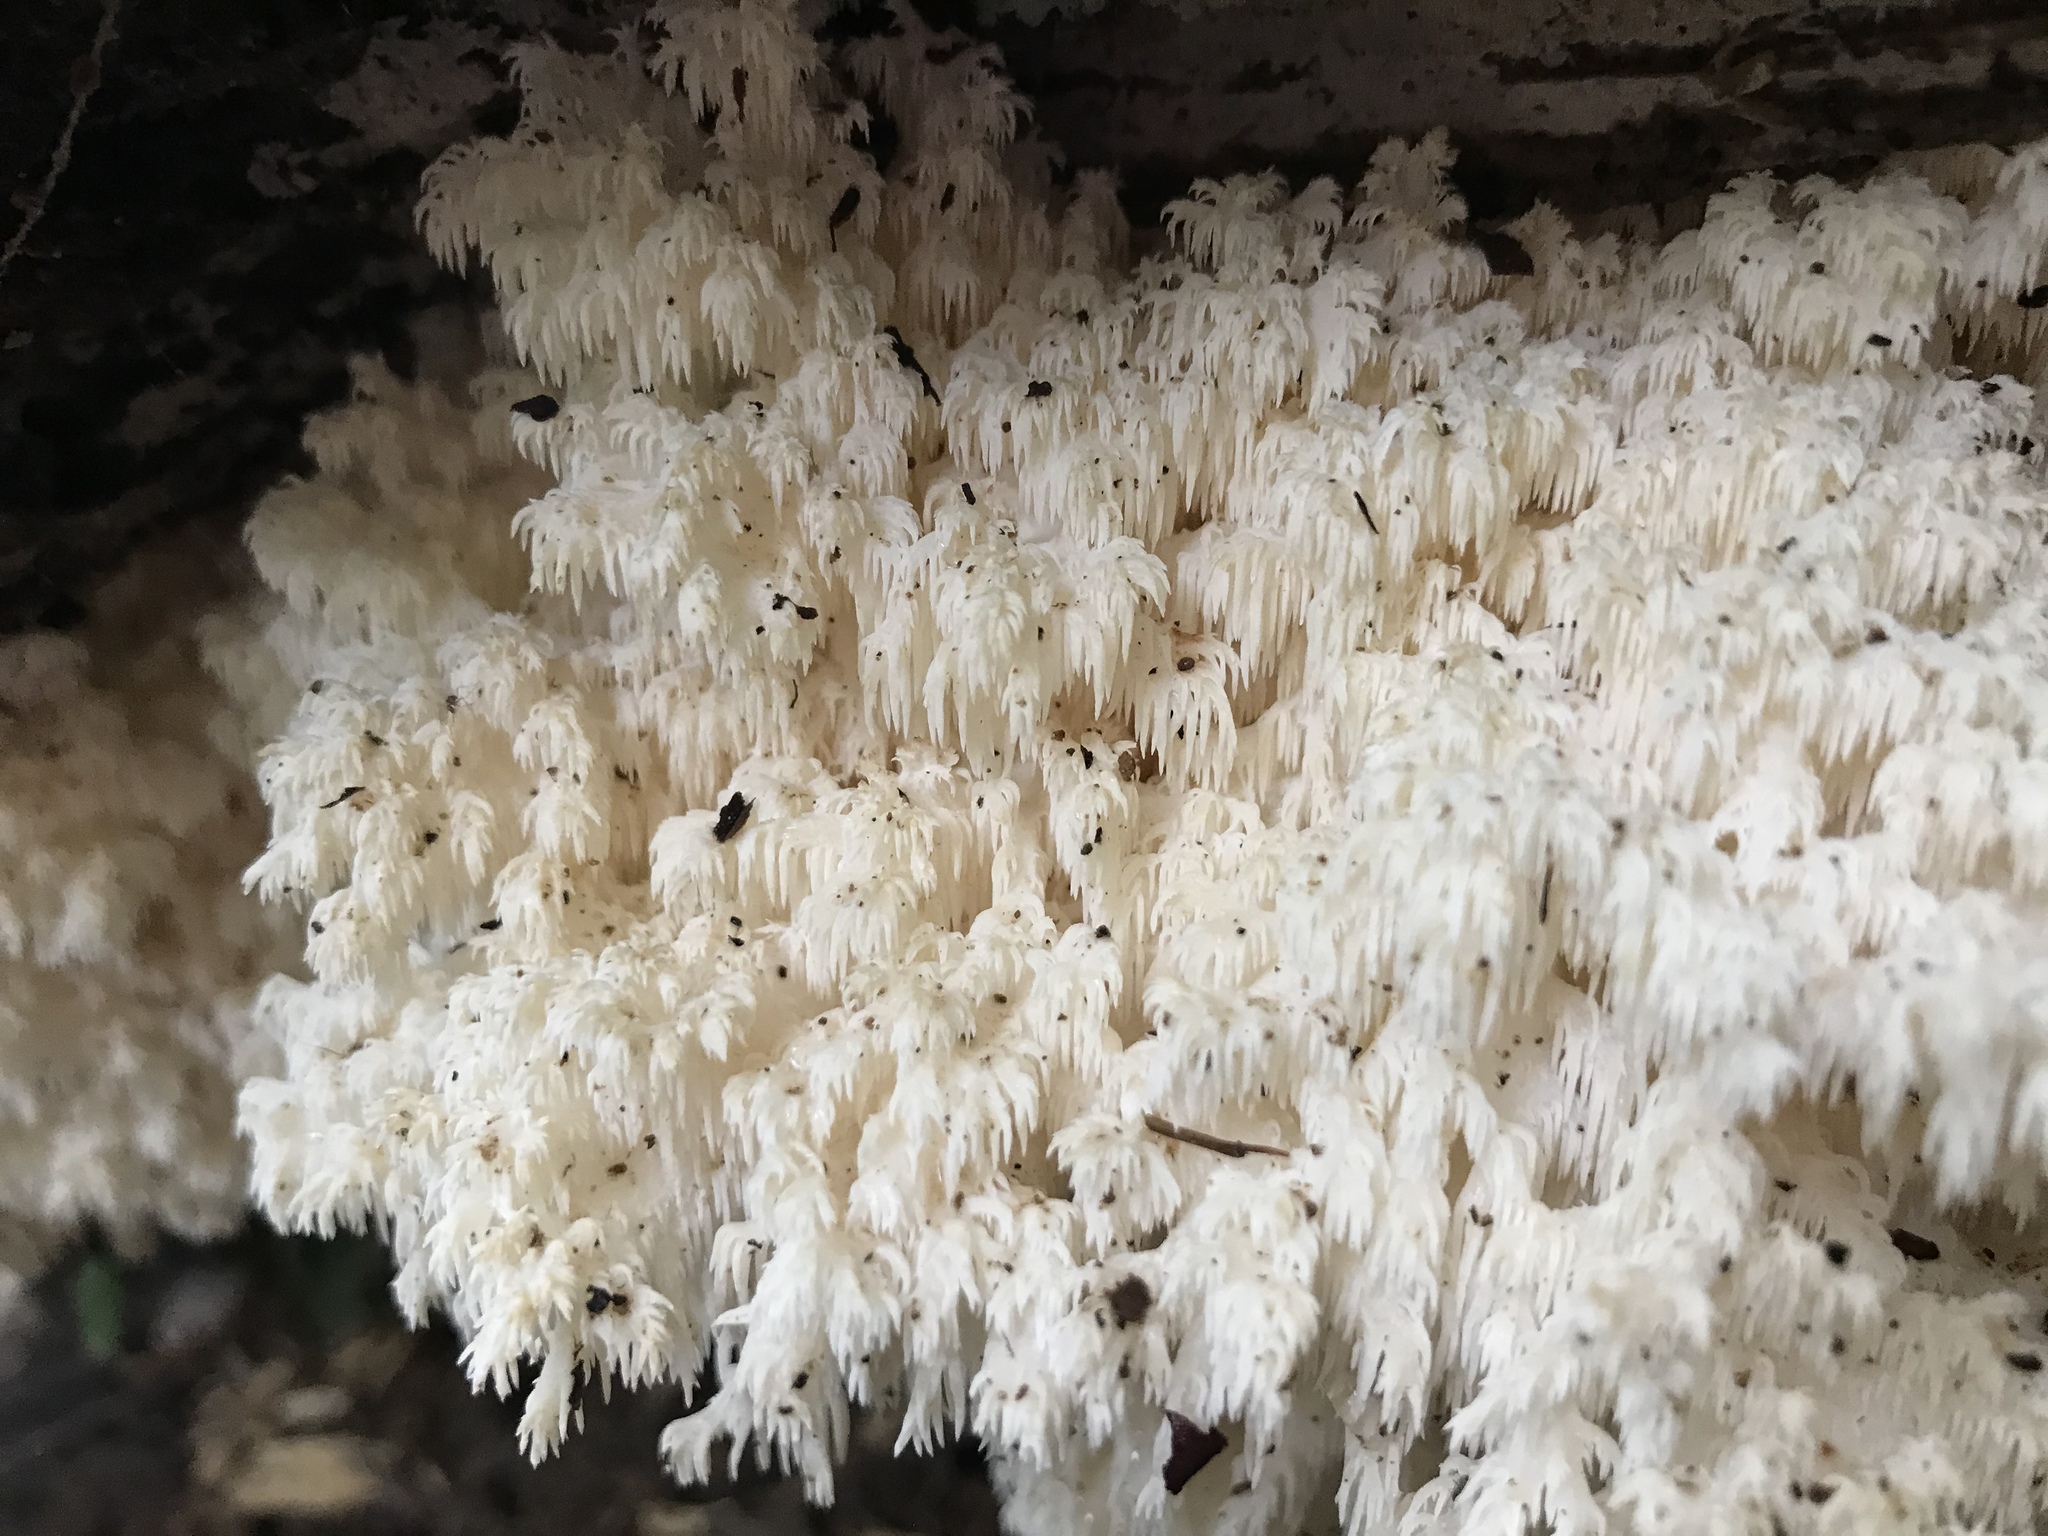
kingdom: Fungi
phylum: Basidiomycota
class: Agaricomycetes
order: Russulales
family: Hericiaceae
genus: Hericium
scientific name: Hericium coralloides
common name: Coral tooth
